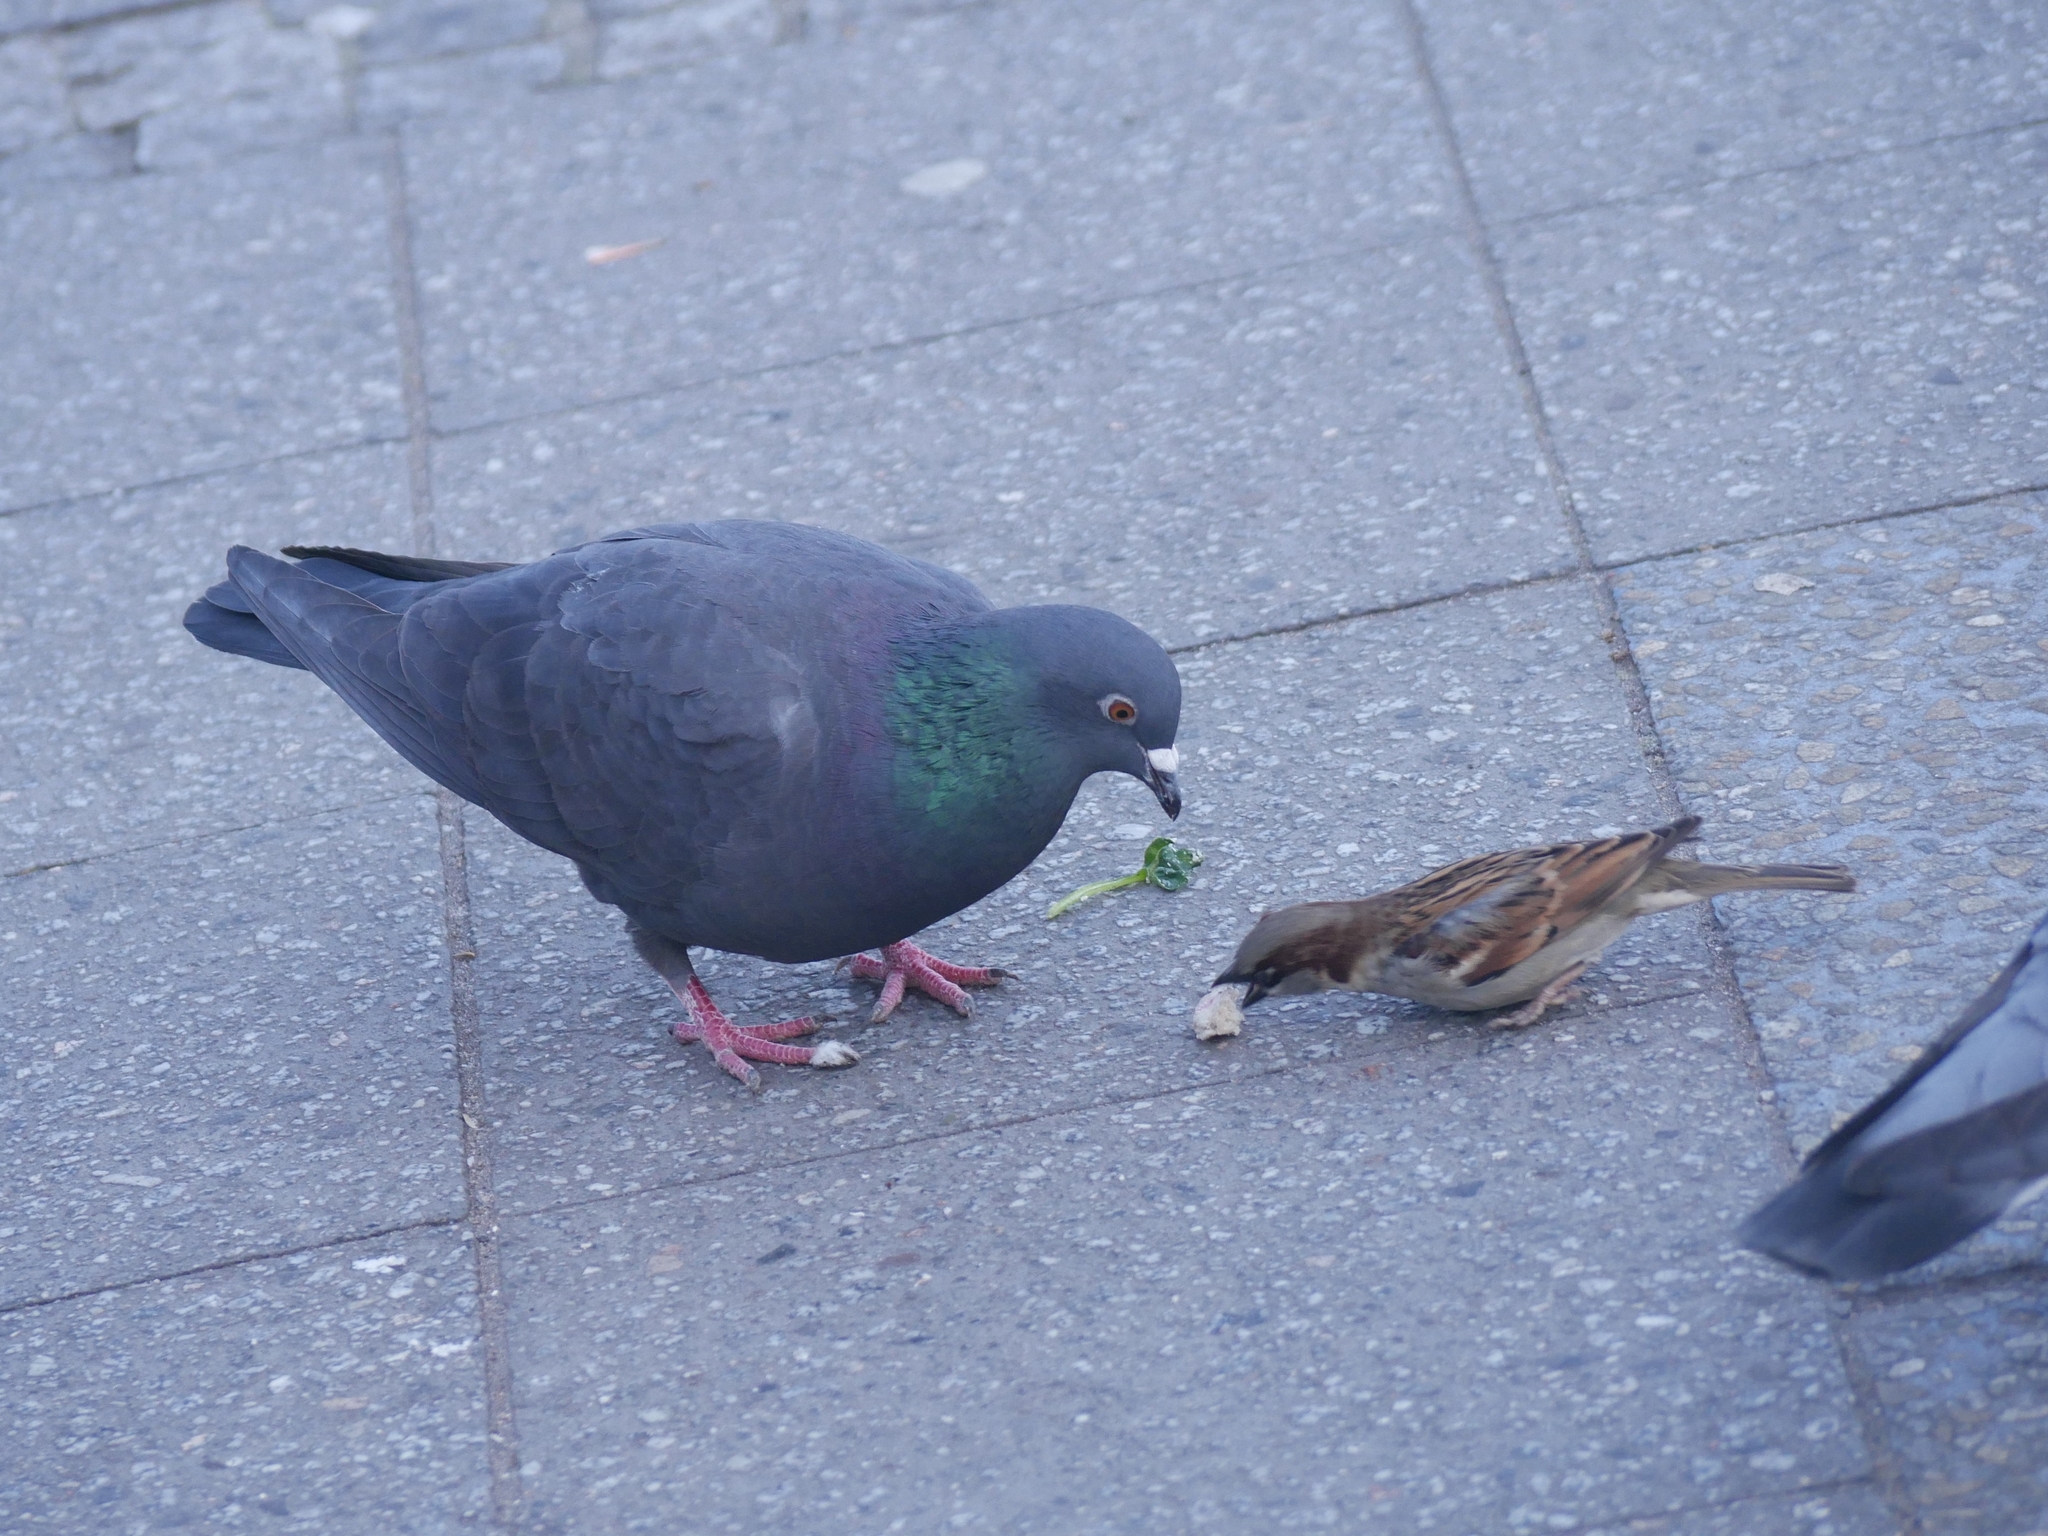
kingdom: Animalia
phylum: Chordata
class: Aves
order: Columbiformes
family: Columbidae
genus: Columba
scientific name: Columba livia
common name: Rock pigeon
